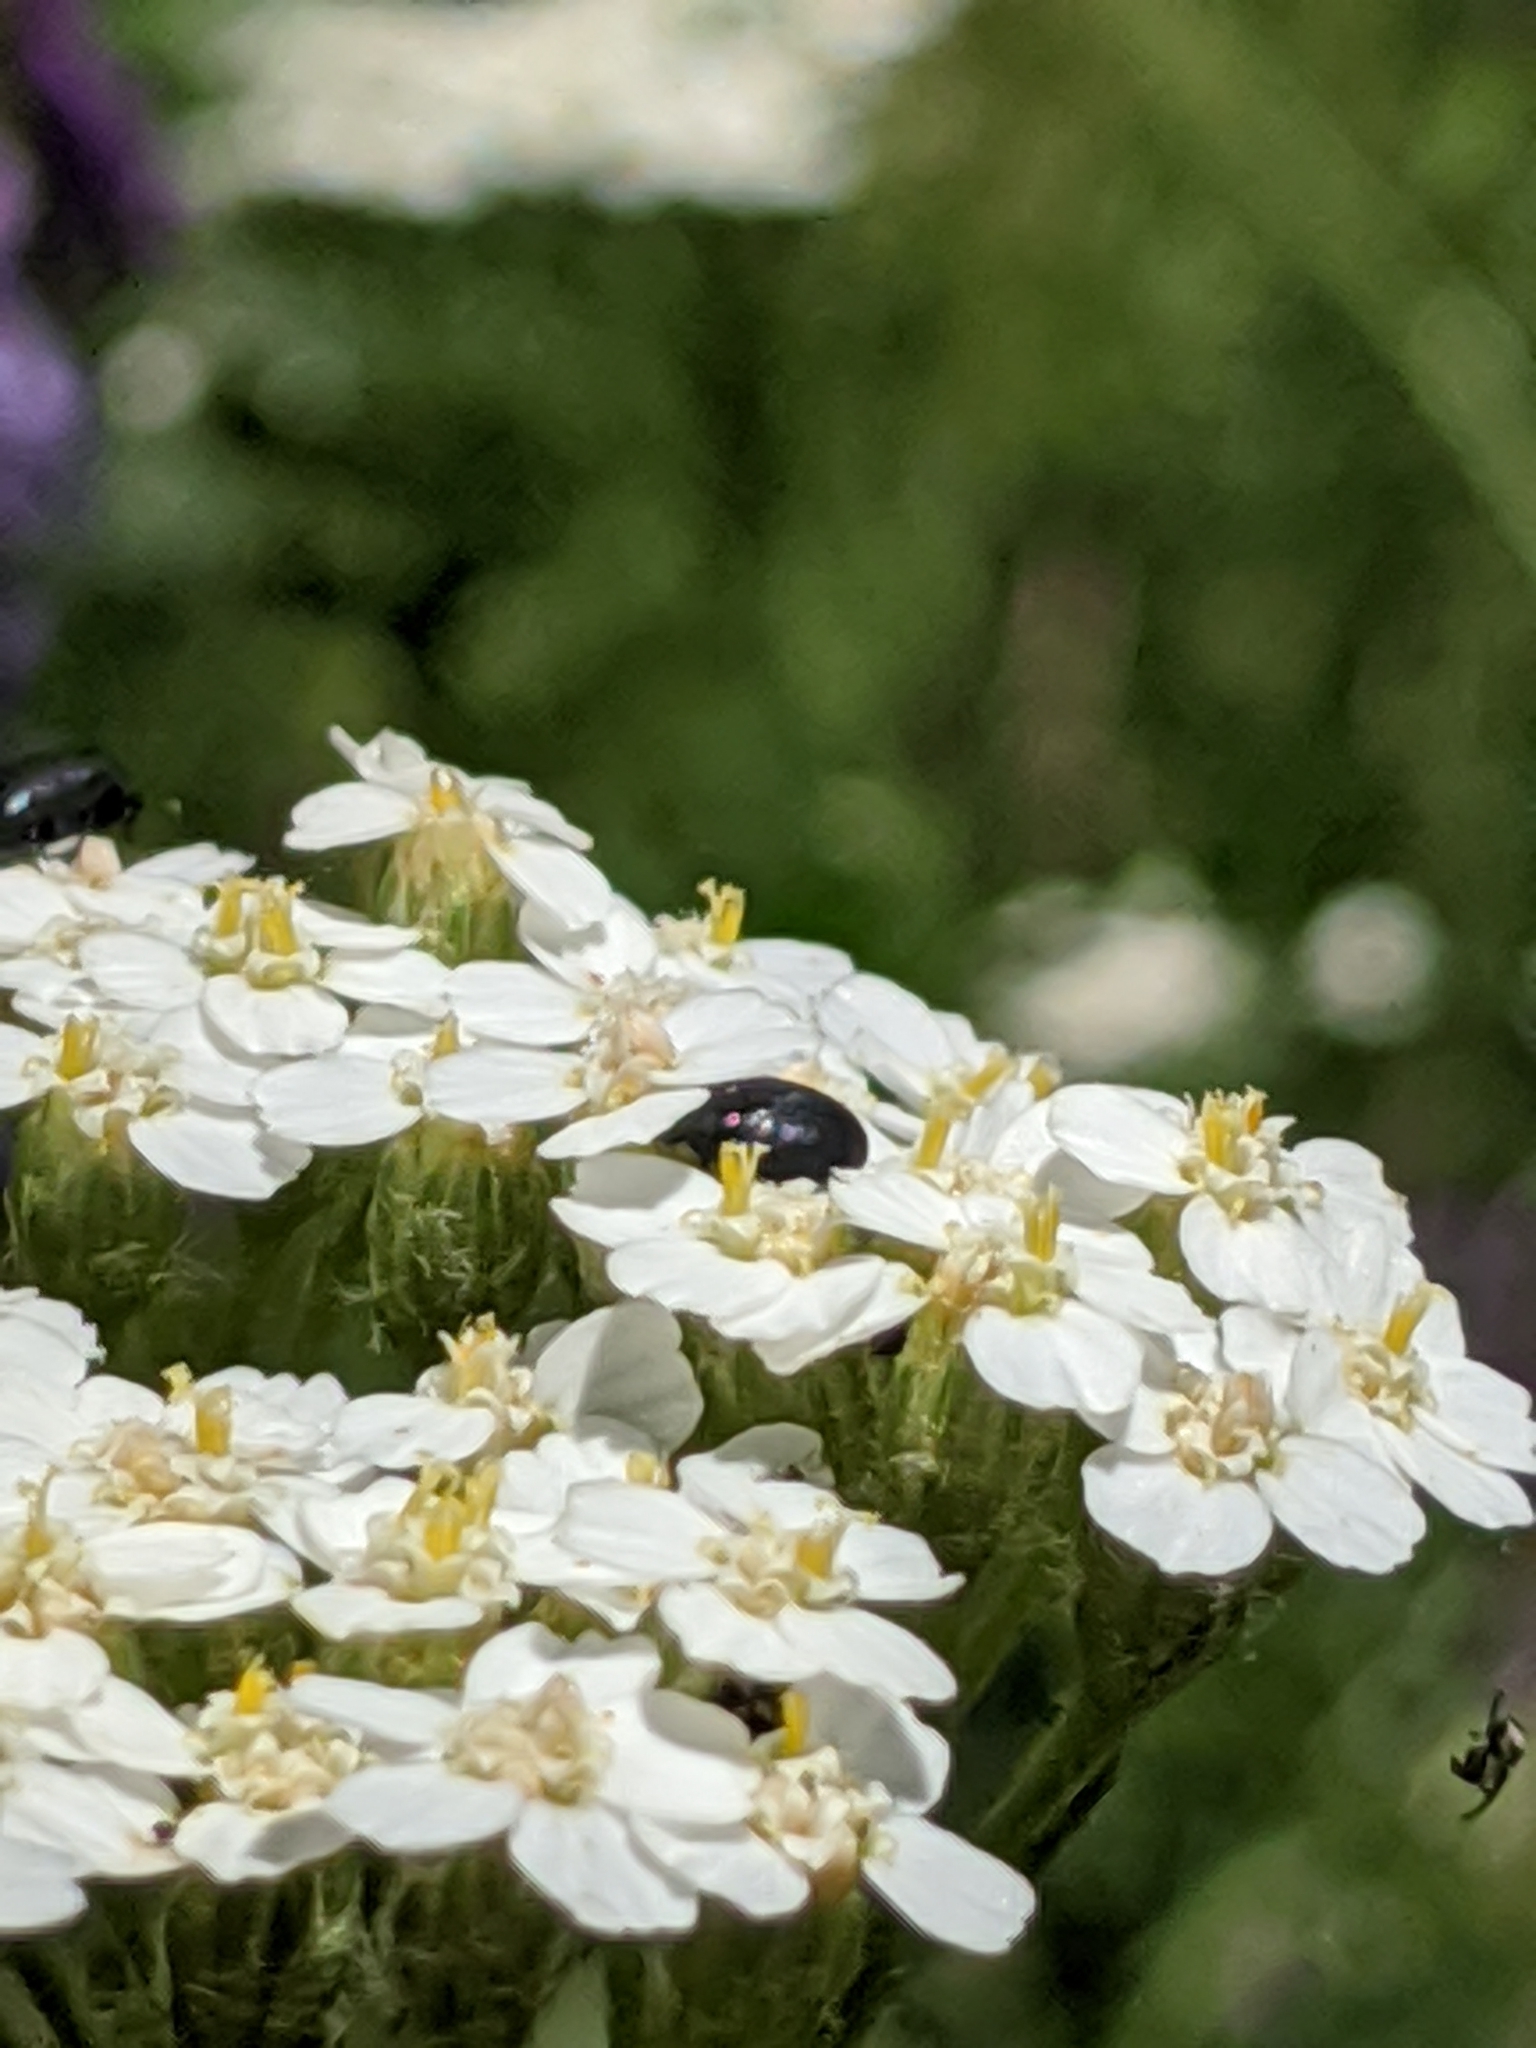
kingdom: Plantae
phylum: Tracheophyta
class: Magnoliopsida
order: Asterales
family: Asteraceae
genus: Achillea
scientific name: Achillea millefolium
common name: Yarrow
